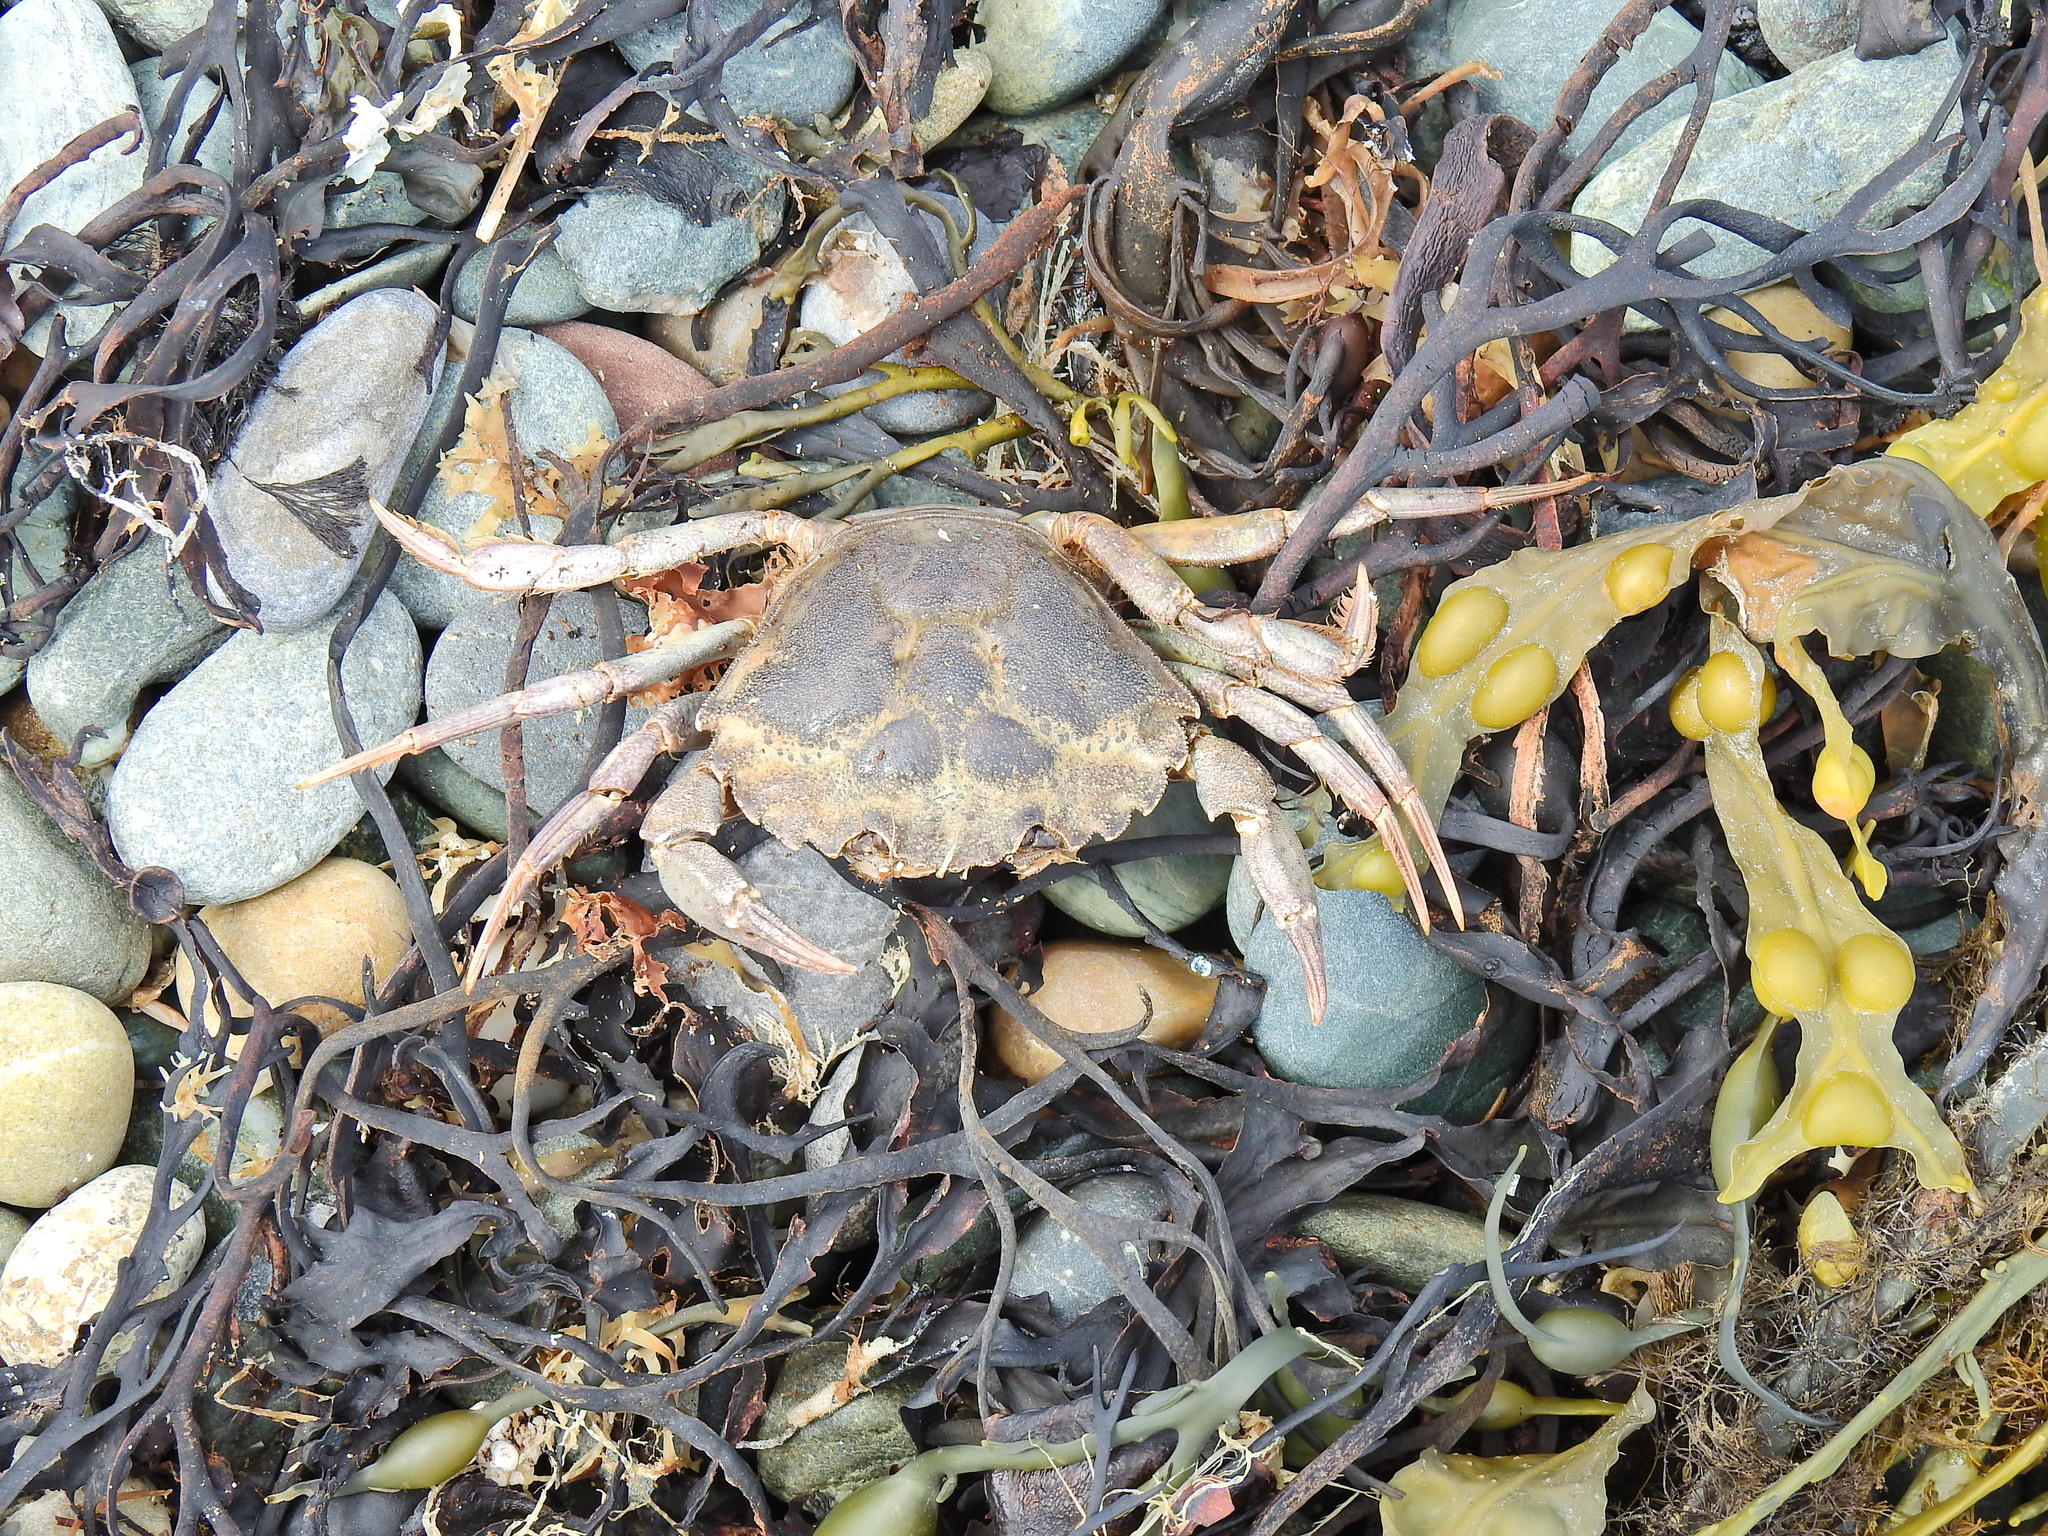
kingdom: Animalia
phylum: Arthropoda
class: Malacostraca
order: Decapoda
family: Carcinidae
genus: Carcinus
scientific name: Carcinus maenas
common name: European green crab
